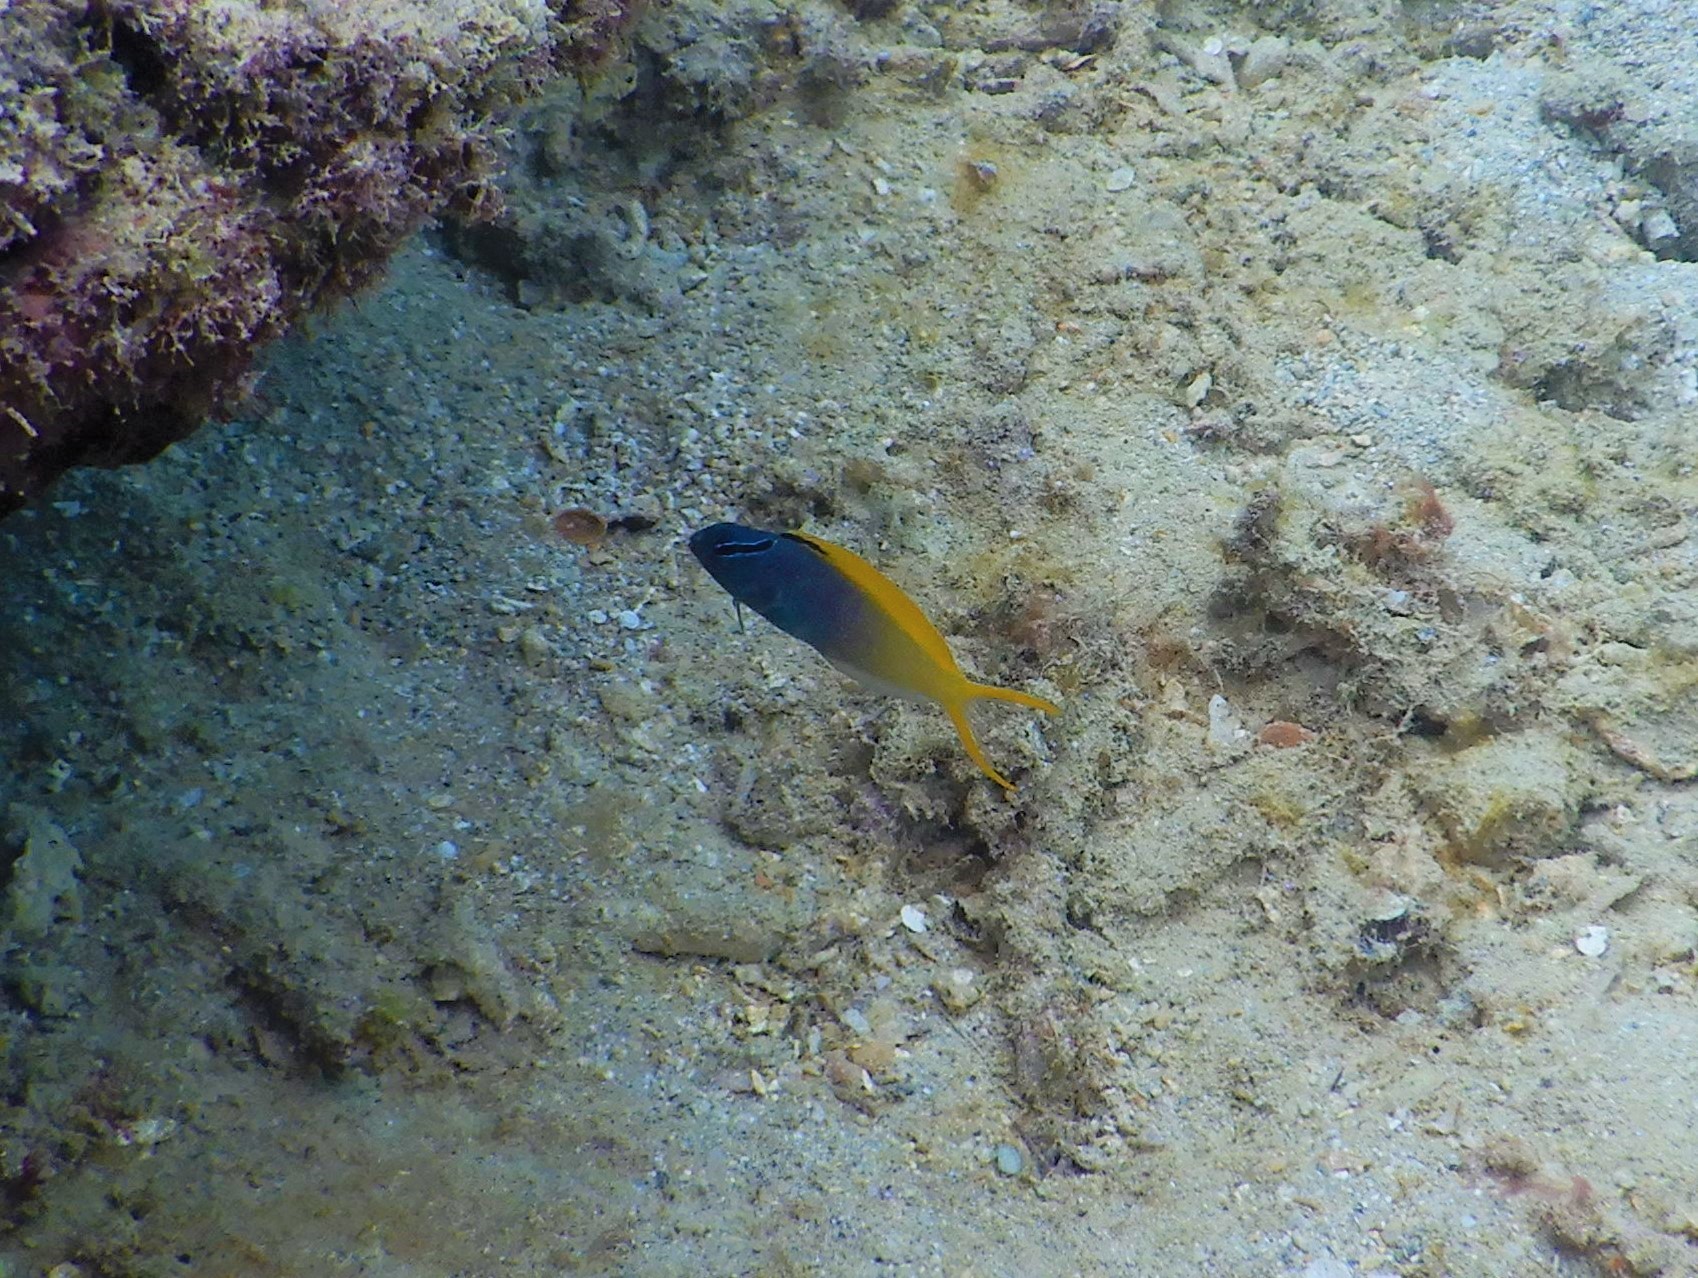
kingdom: Animalia
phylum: Chordata
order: Perciformes
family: Blenniidae
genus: Meiacanthus
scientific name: Meiacanthus atrodorsalis
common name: Eye-lash harptail-blenny
